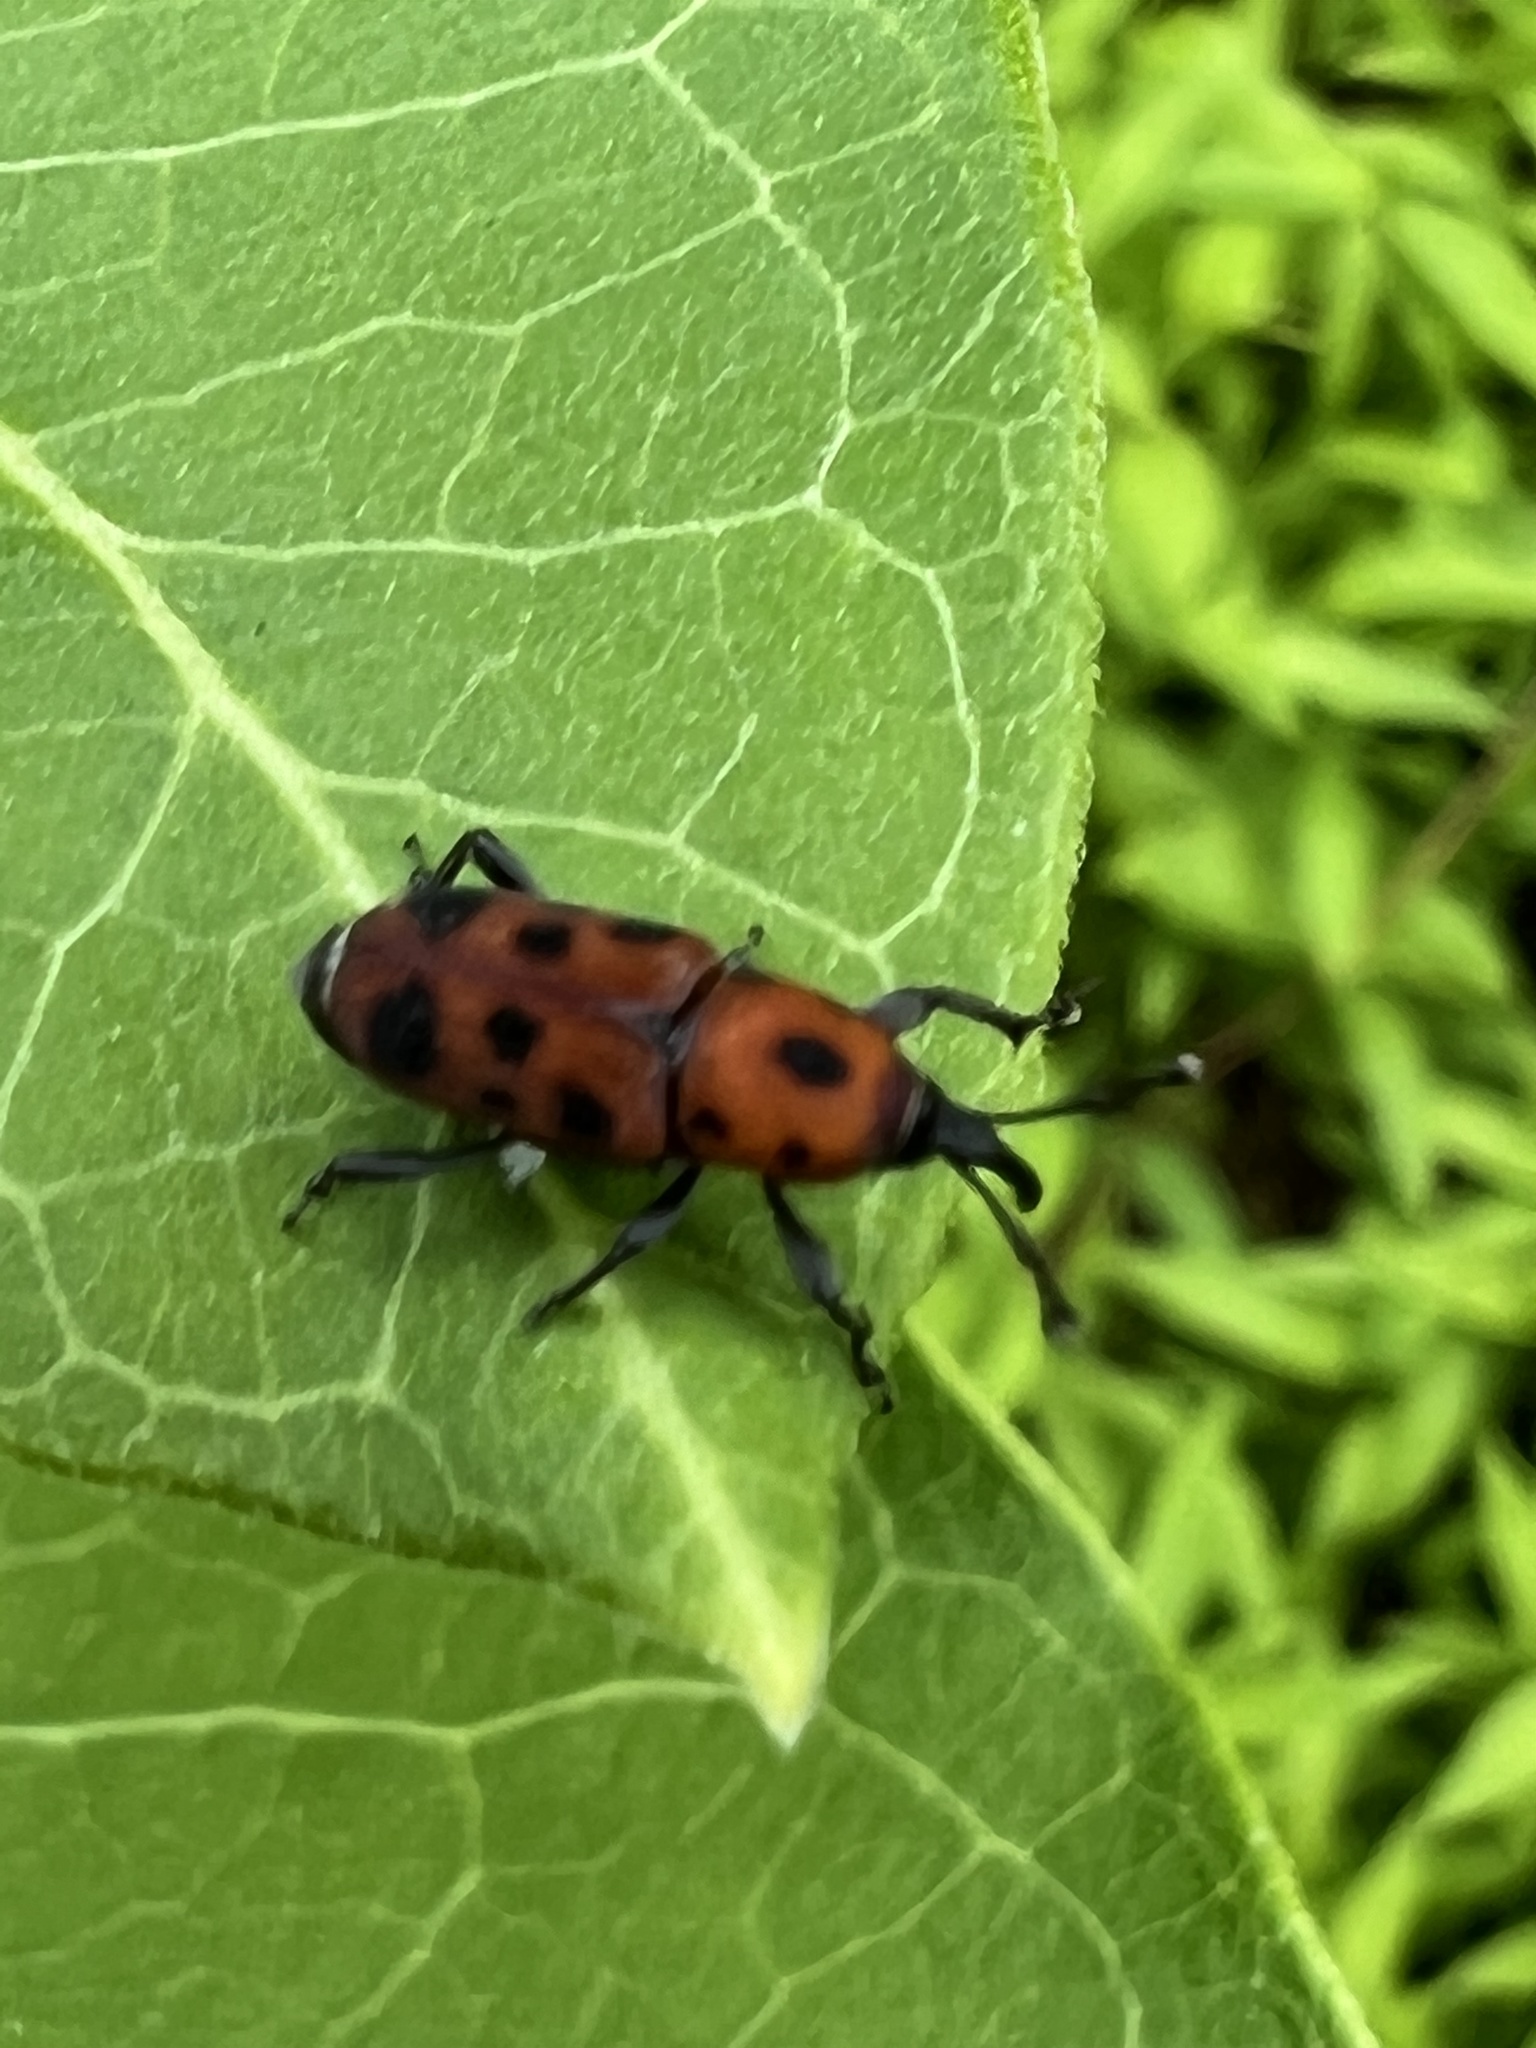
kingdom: Animalia
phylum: Arthropoda
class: Insecta
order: Coleoptera
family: Dryophthoridae
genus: Rhodobaenus
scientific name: Rhodobaenus tredecimpunctatus
